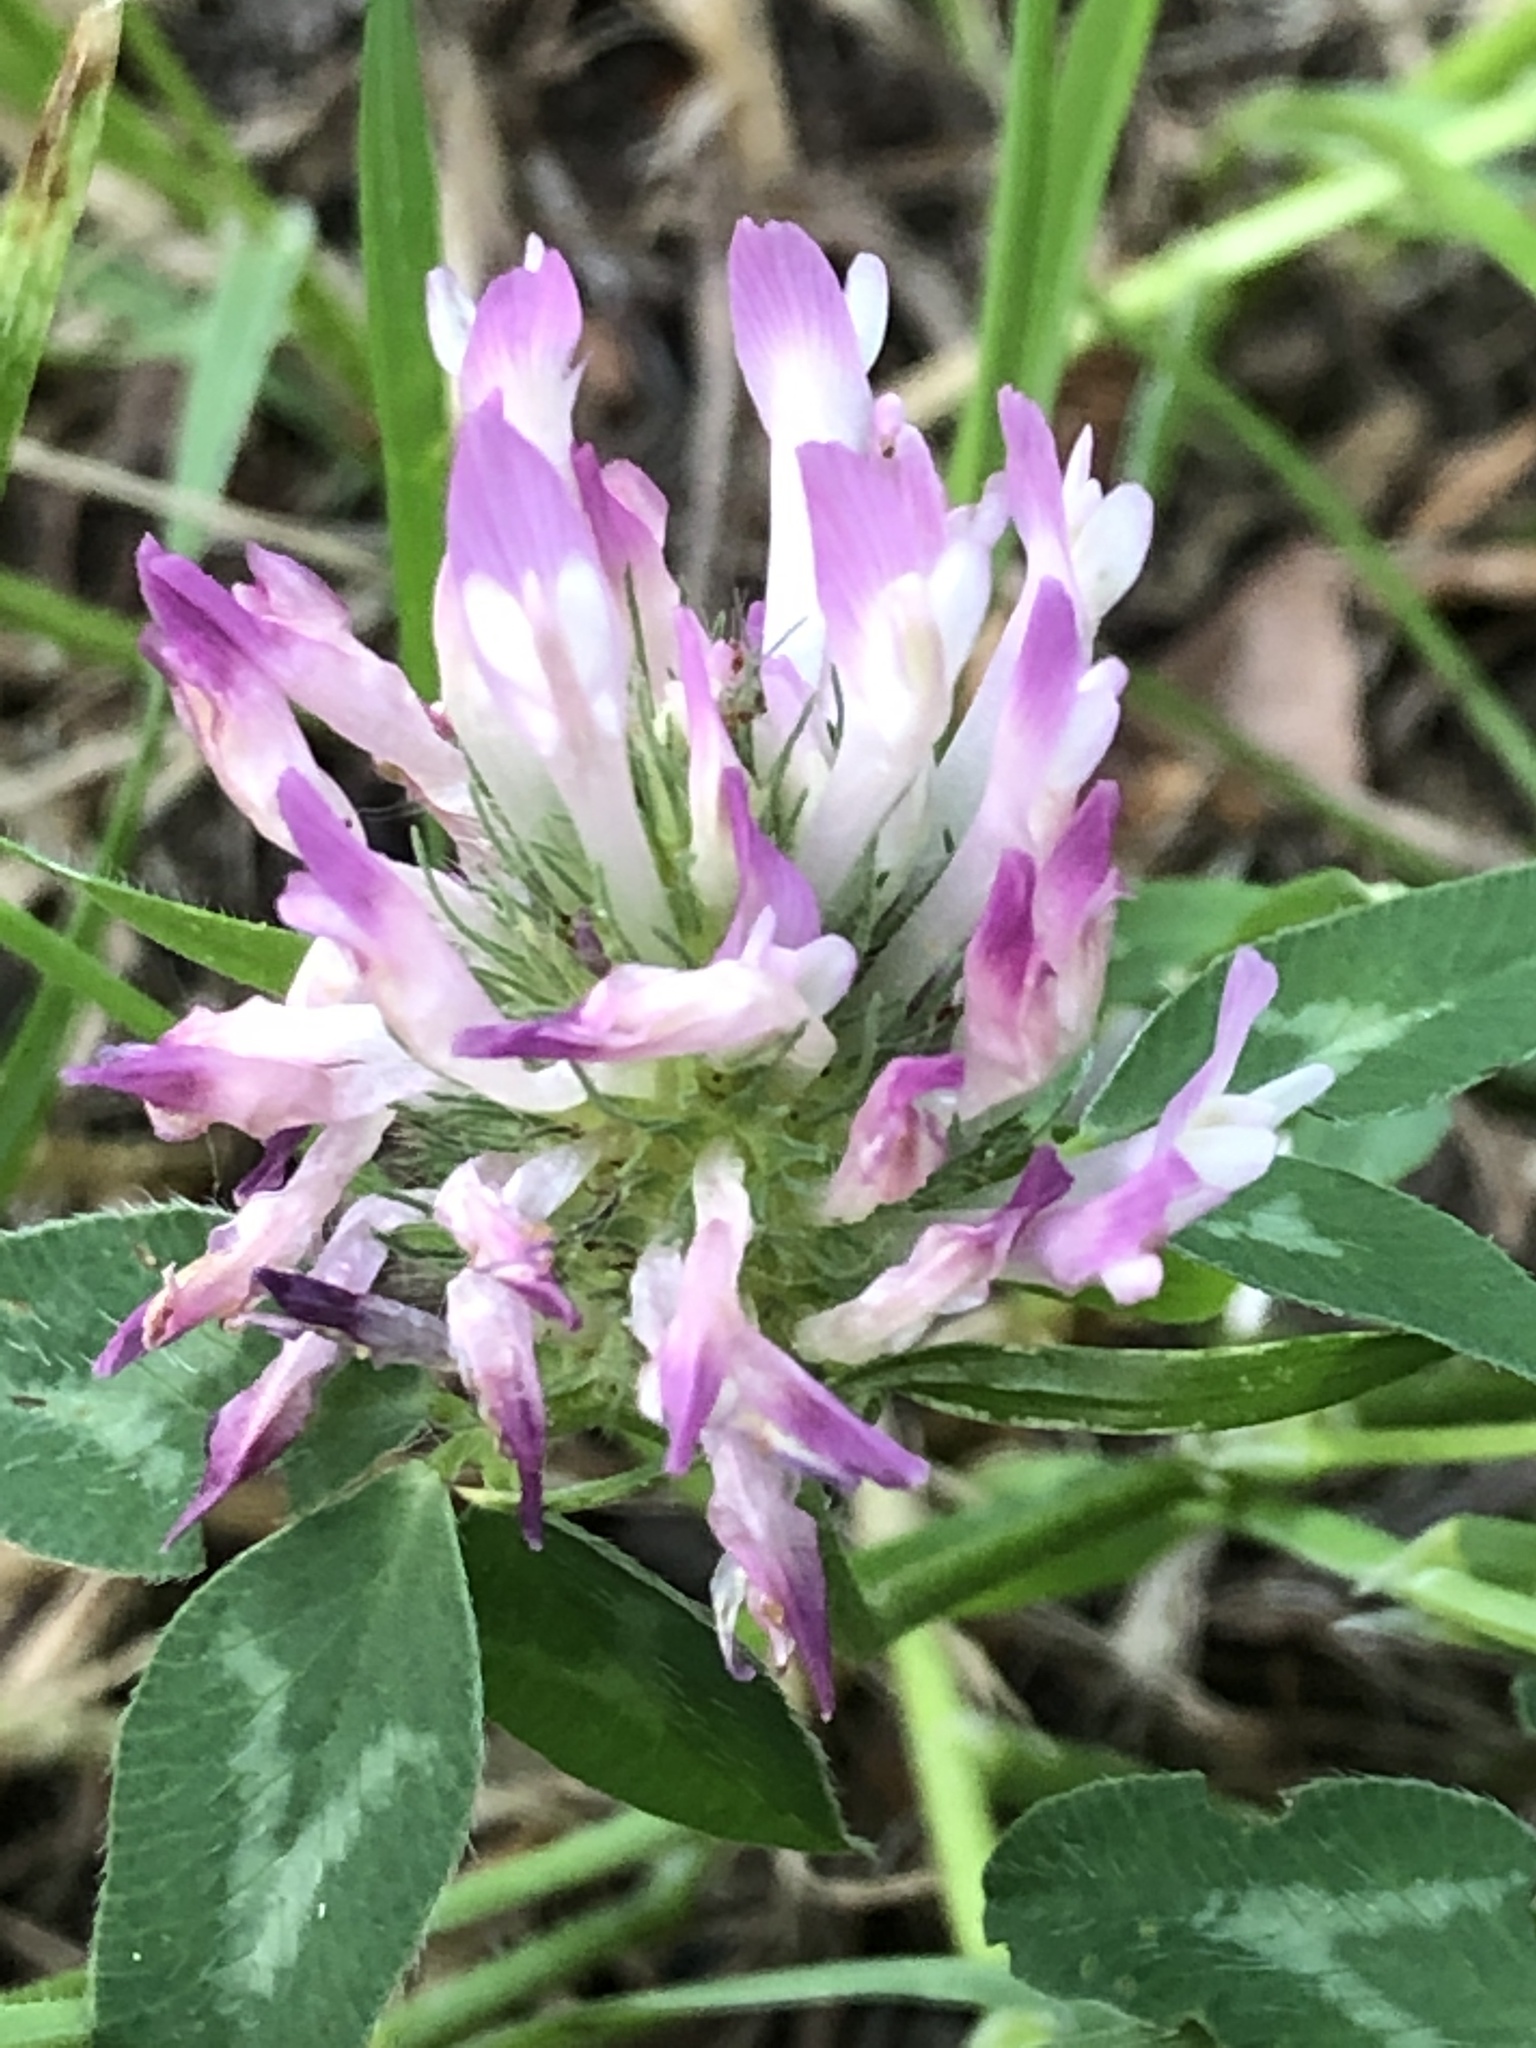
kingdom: Plantae
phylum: Tracheophyta
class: Magnoliopsida
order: Fabales
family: Fabaceae
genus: Trifolium
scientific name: Trifolium pratense
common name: Red clover
